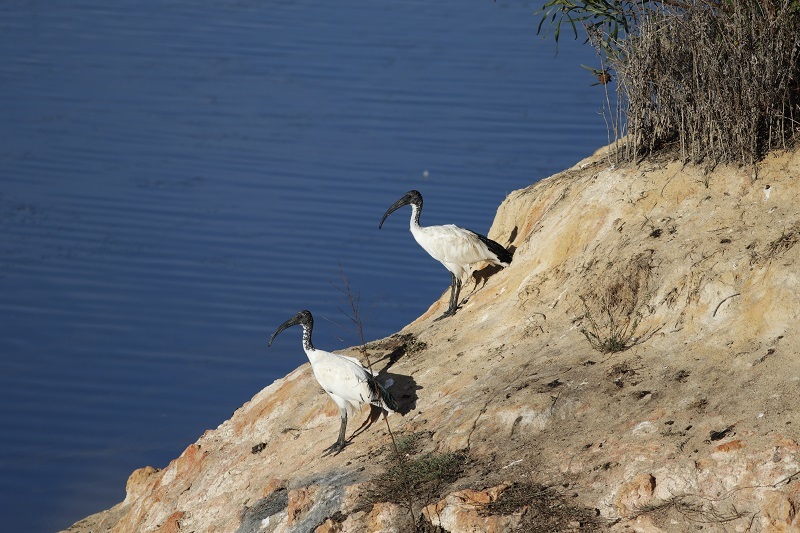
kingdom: Animalia
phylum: Chordata
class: Aves
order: Pelecaniformes
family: Threskiornithidae
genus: Threskiornis
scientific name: Threskiornis aethiopicus
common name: Sacred ibis
